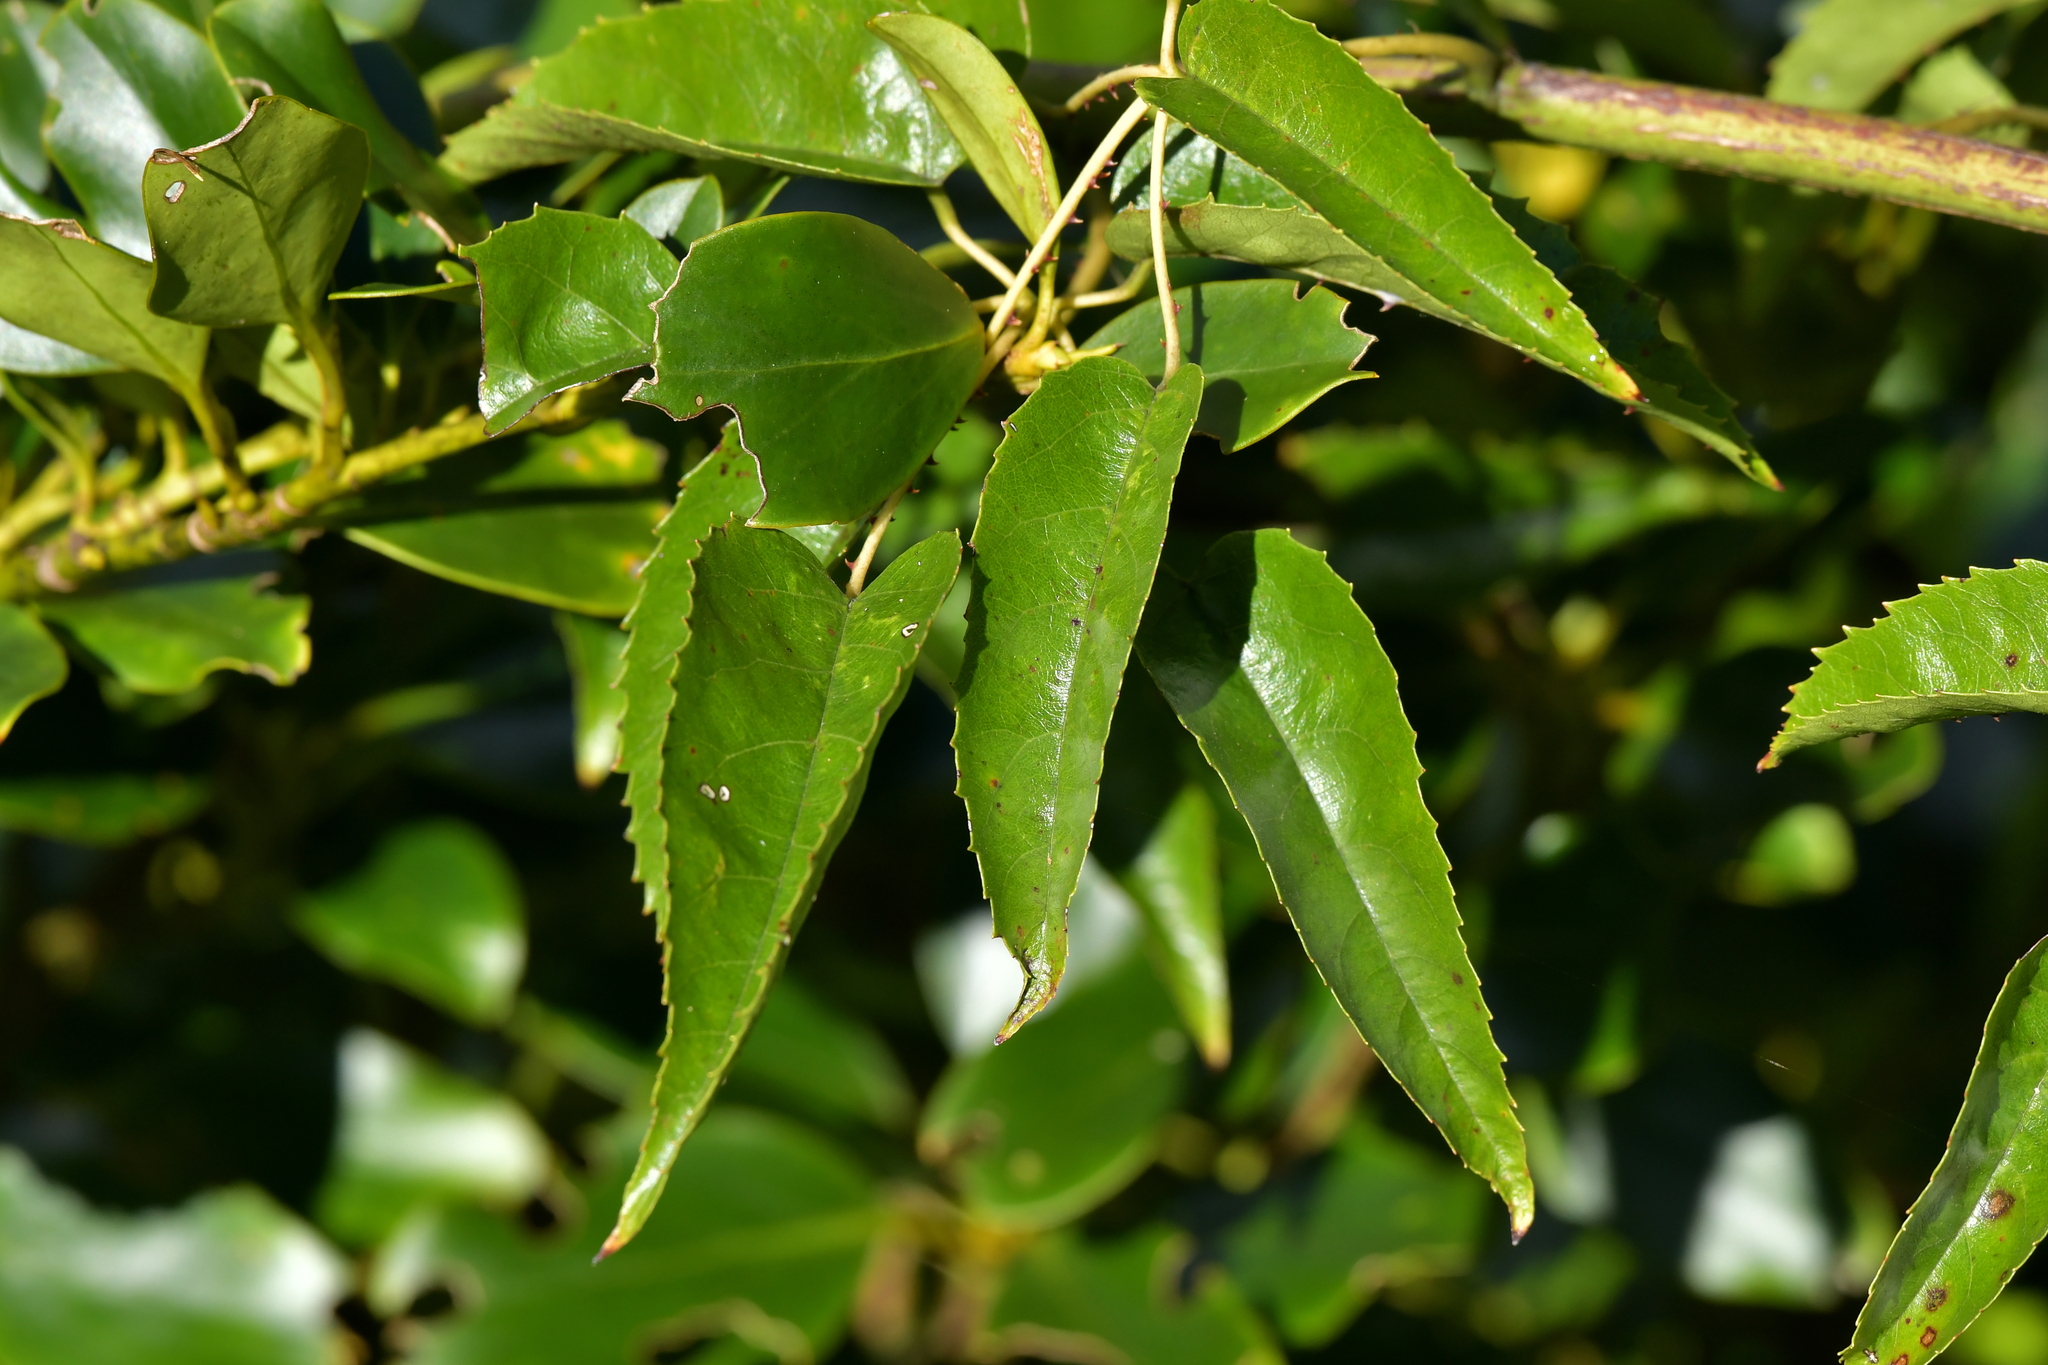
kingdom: Plantae
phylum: Tracheophyta
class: Magnoliopsida
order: Rosales
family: Rosaceae
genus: Rubus
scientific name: Rubus cissoides
